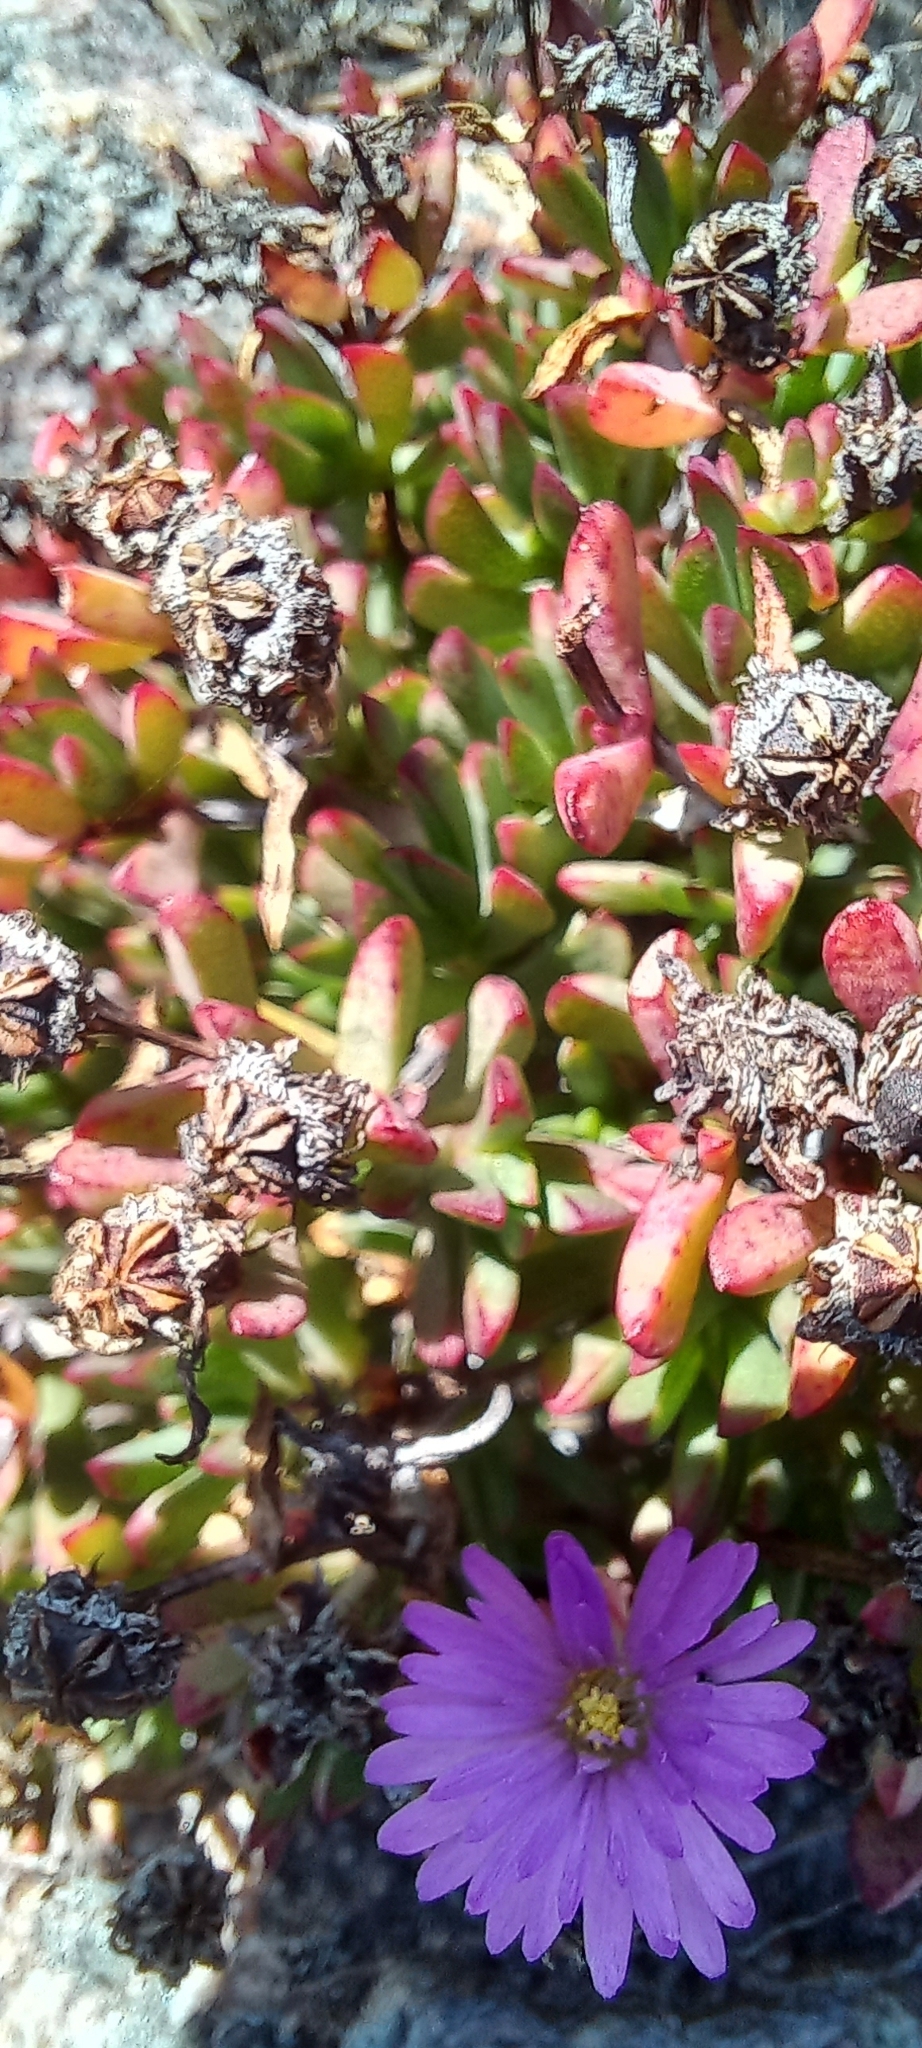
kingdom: Plantae
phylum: Tracheophyta
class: Magnoliopsida
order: Caryophyllales
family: Aizoaceae
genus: Lampranthus
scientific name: Lampranthus glomeratus
